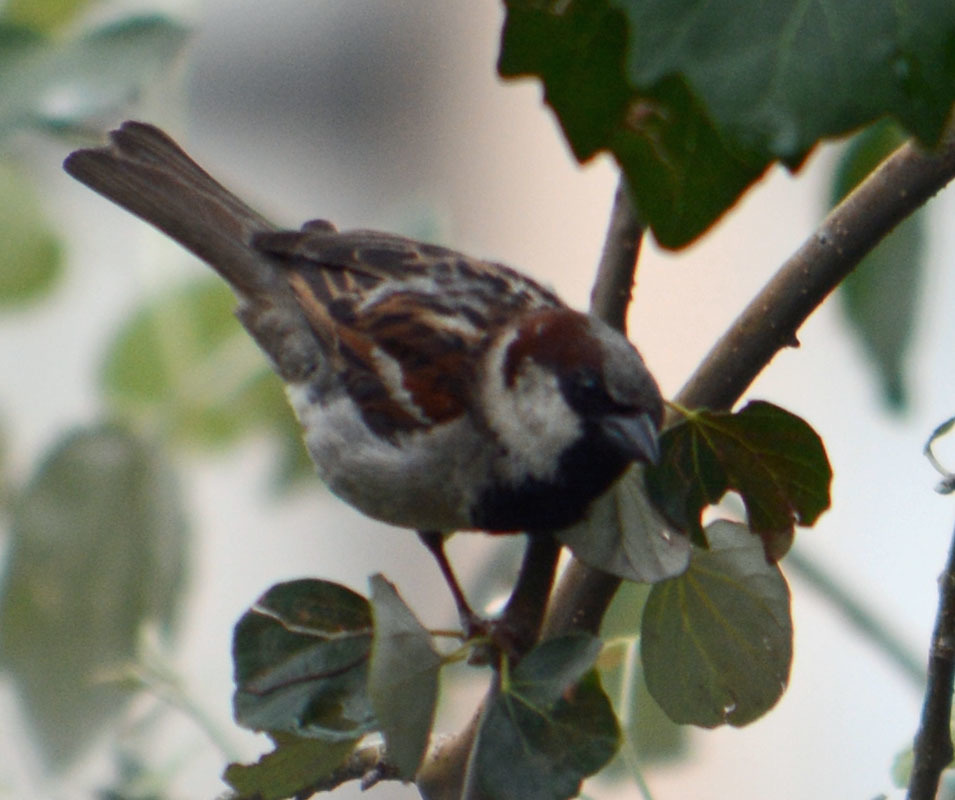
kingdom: Animalia
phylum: Chordata
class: Aves
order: Passeriformes
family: Passeridae
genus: Passer
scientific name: Passer domesticus
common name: House sparrow
